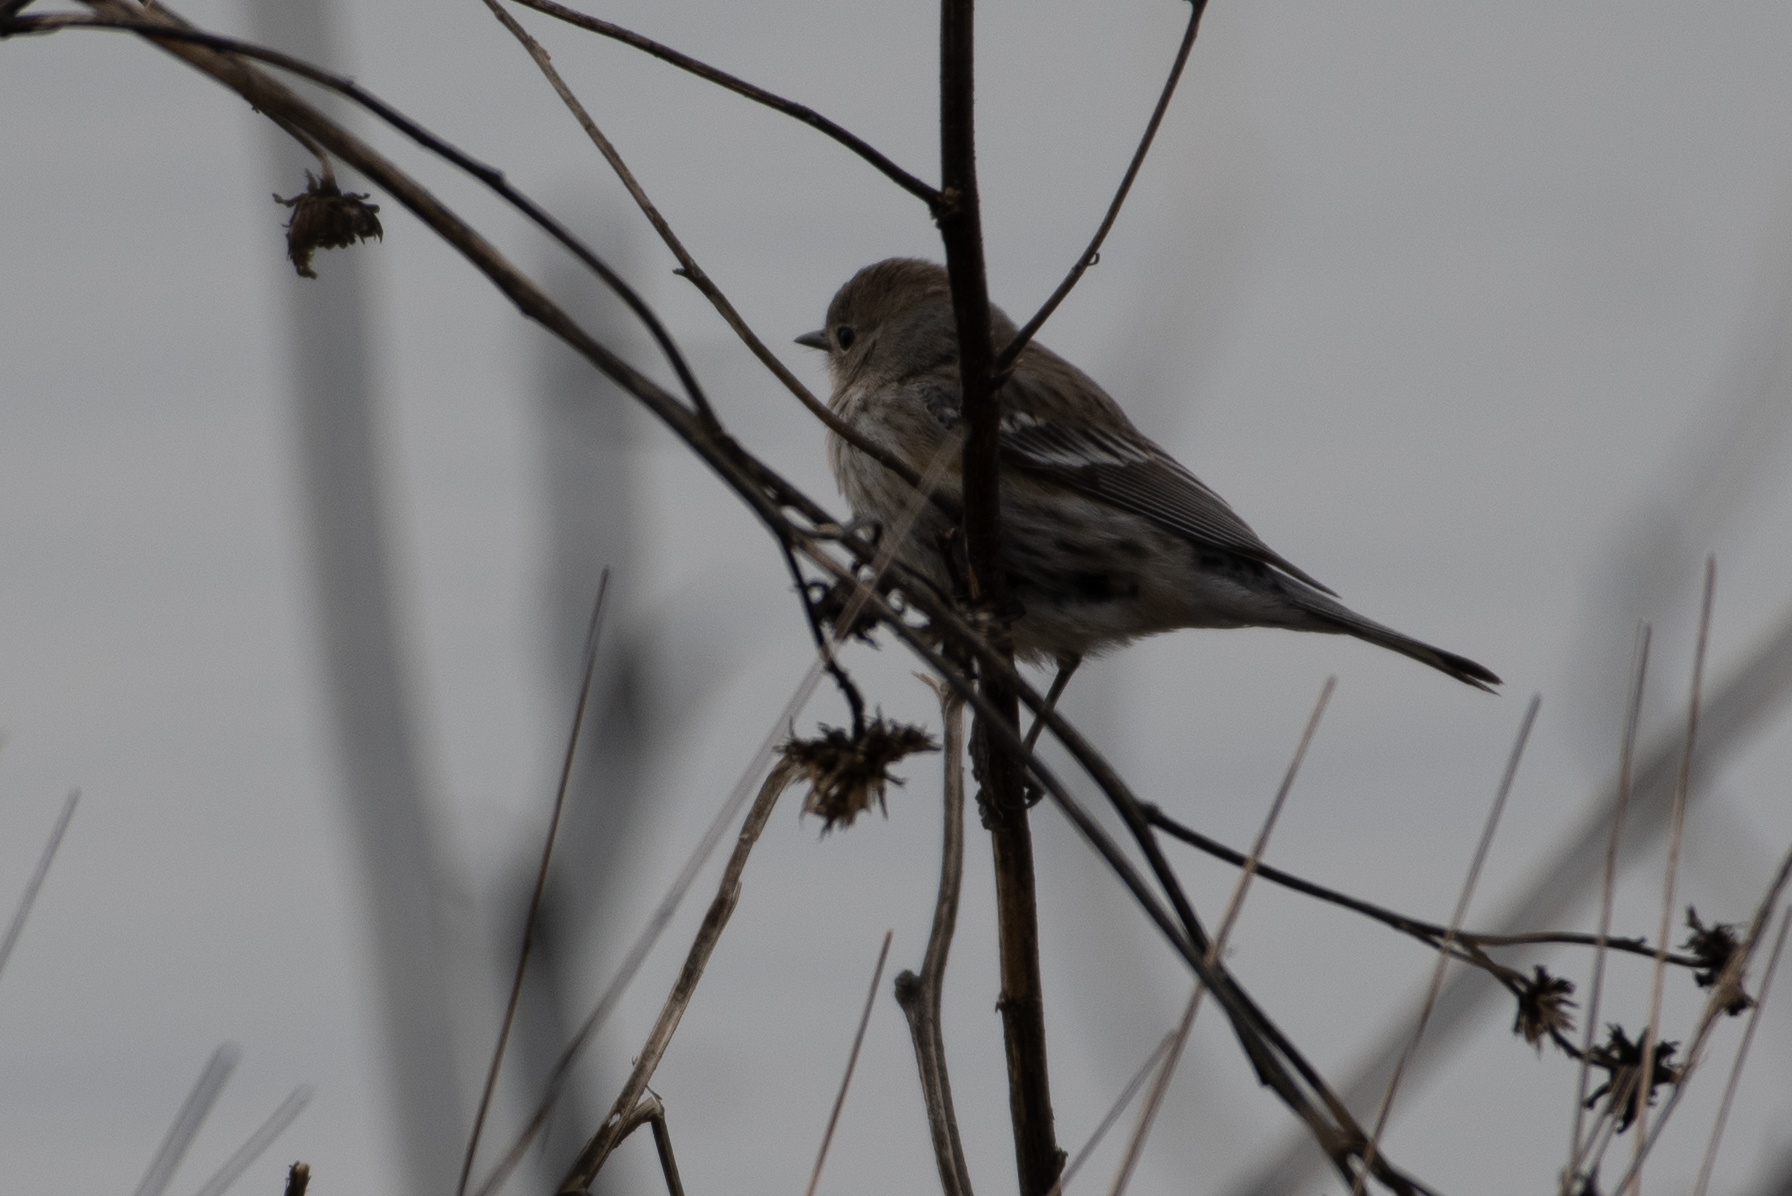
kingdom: Animalia
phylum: Chordata
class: Aves
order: Passeriformes
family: Parulidae
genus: Setophaga
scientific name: Setophaga coronata
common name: Myrtle warbler
